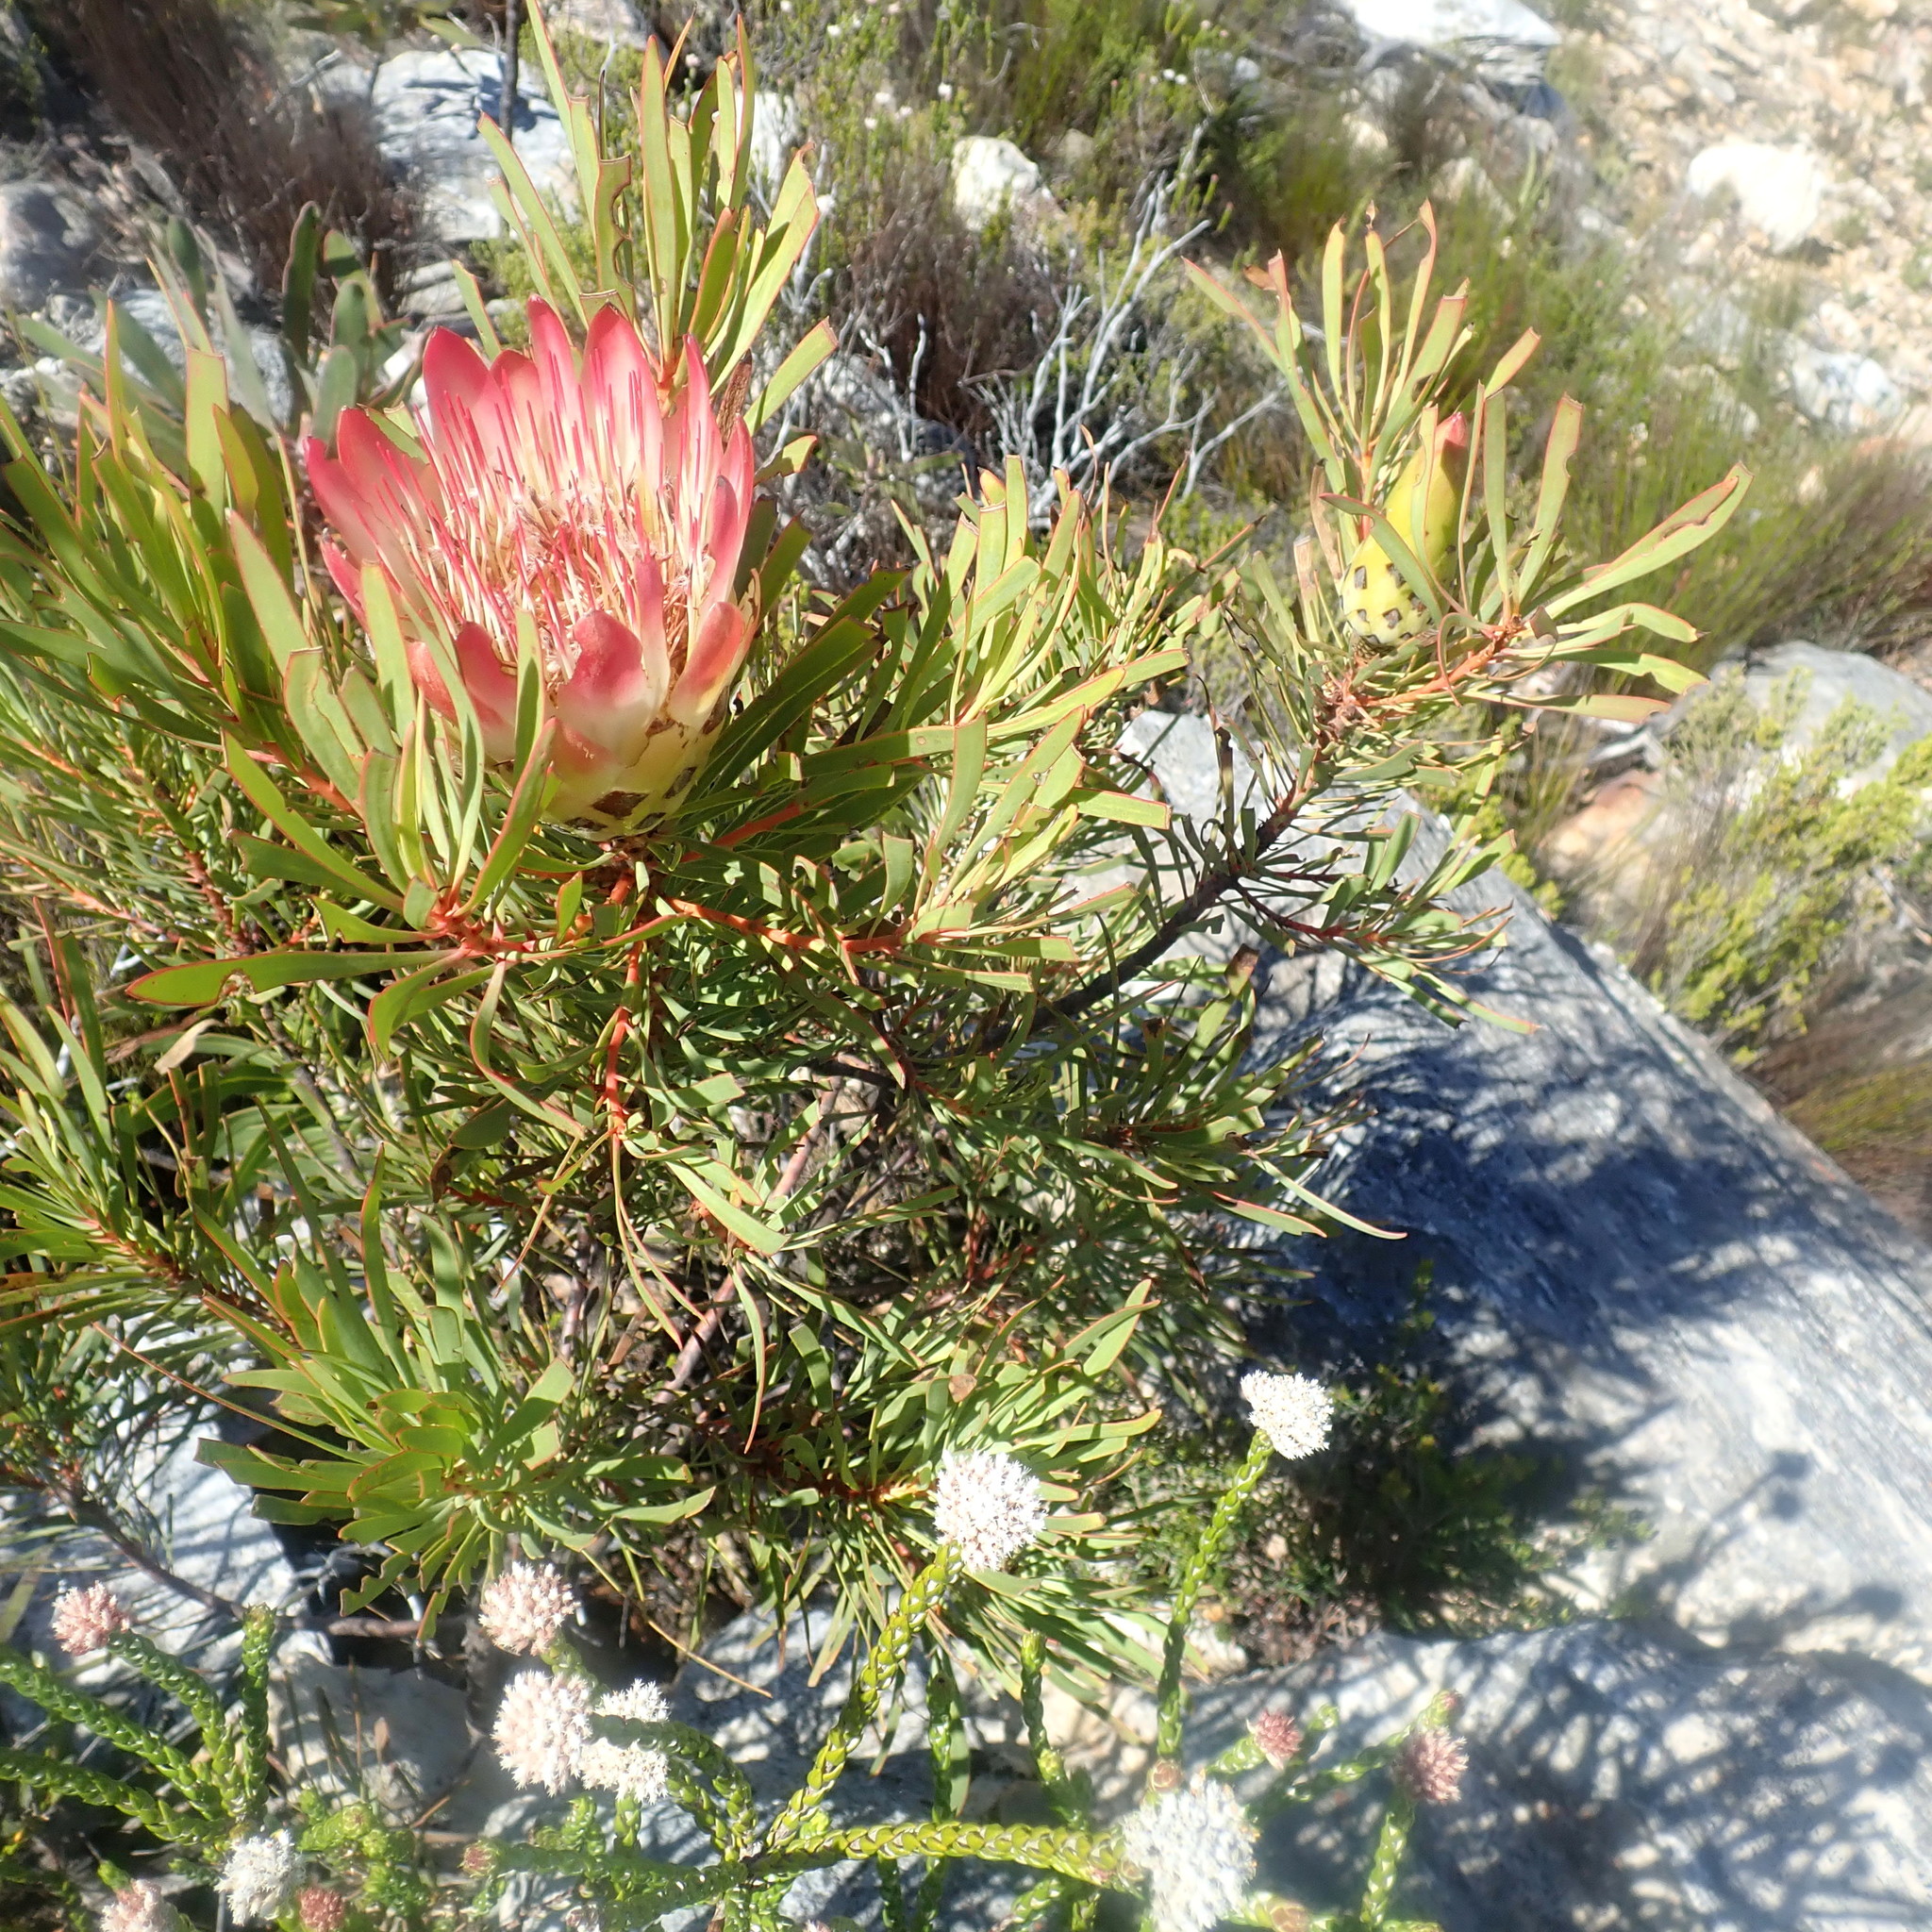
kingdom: Plantae
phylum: Tracheophyta
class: Magnoliopsida
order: Proteales
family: Proteaceae
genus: Protea
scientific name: Protea repens
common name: Sugarbush
